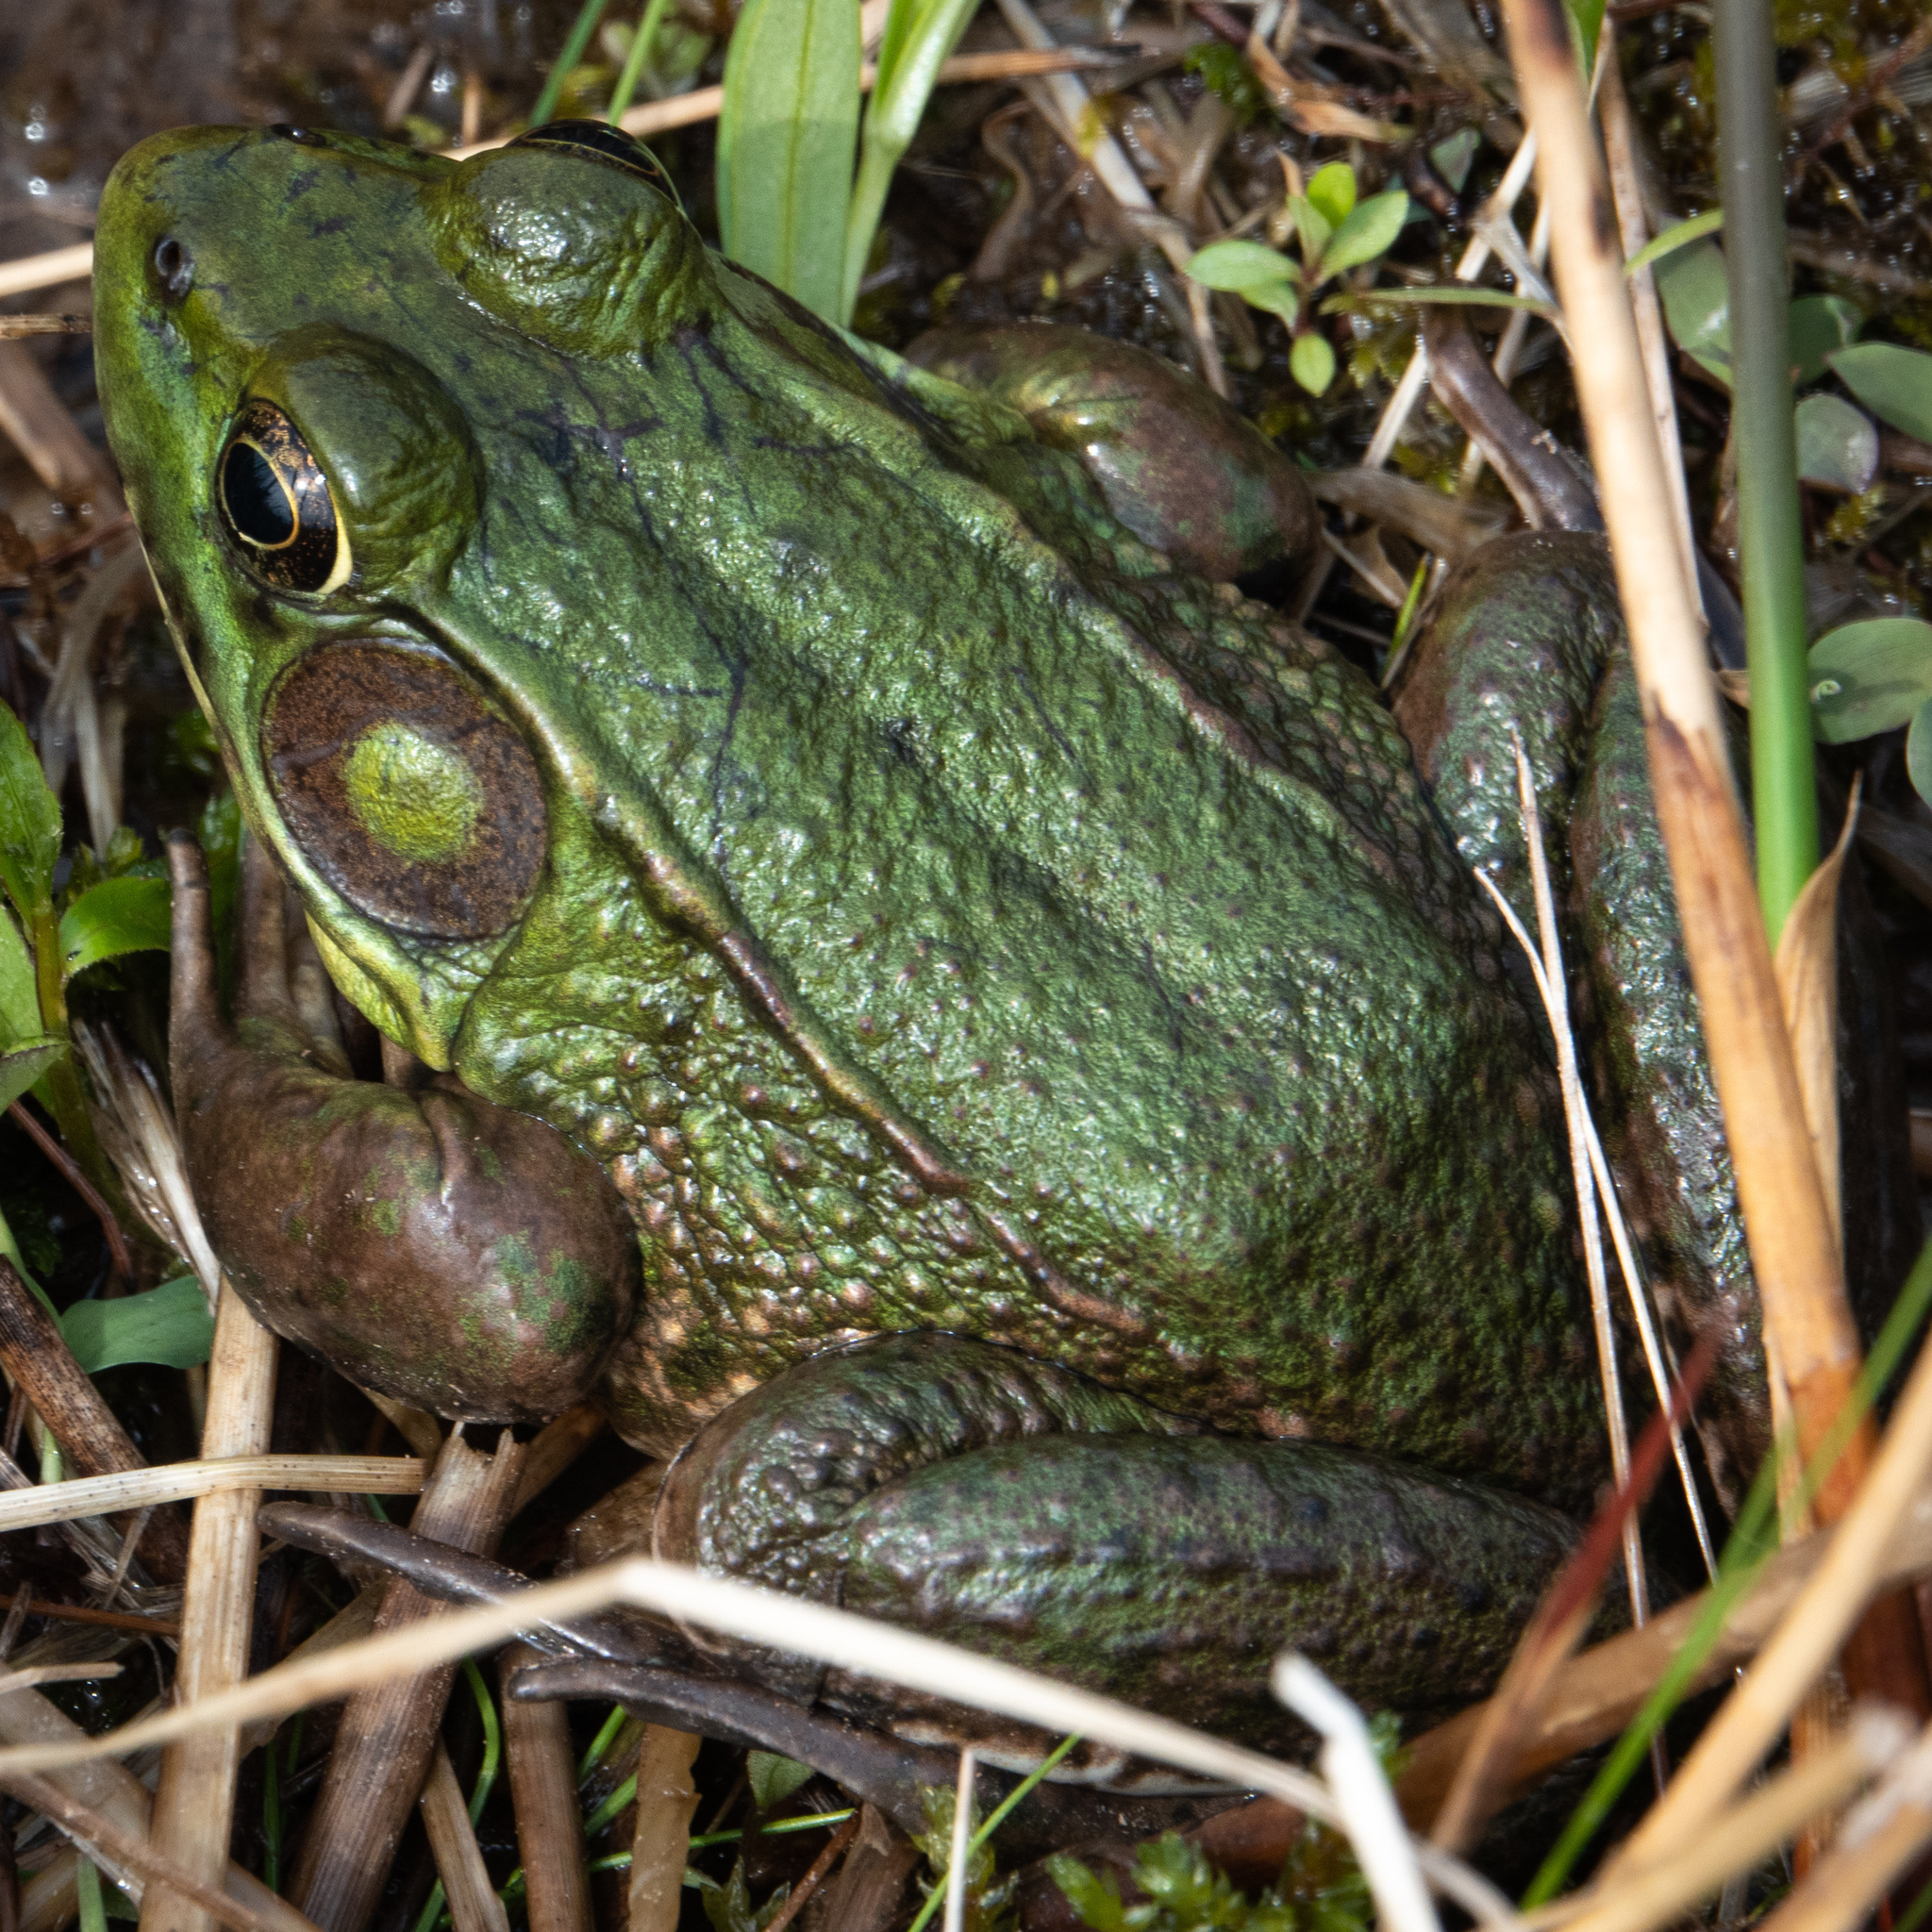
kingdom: Animalia
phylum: Chordata
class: Amphibia
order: Anura
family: Ranidae
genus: Lithobates
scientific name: Lithobates clamitans
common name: Green frog
